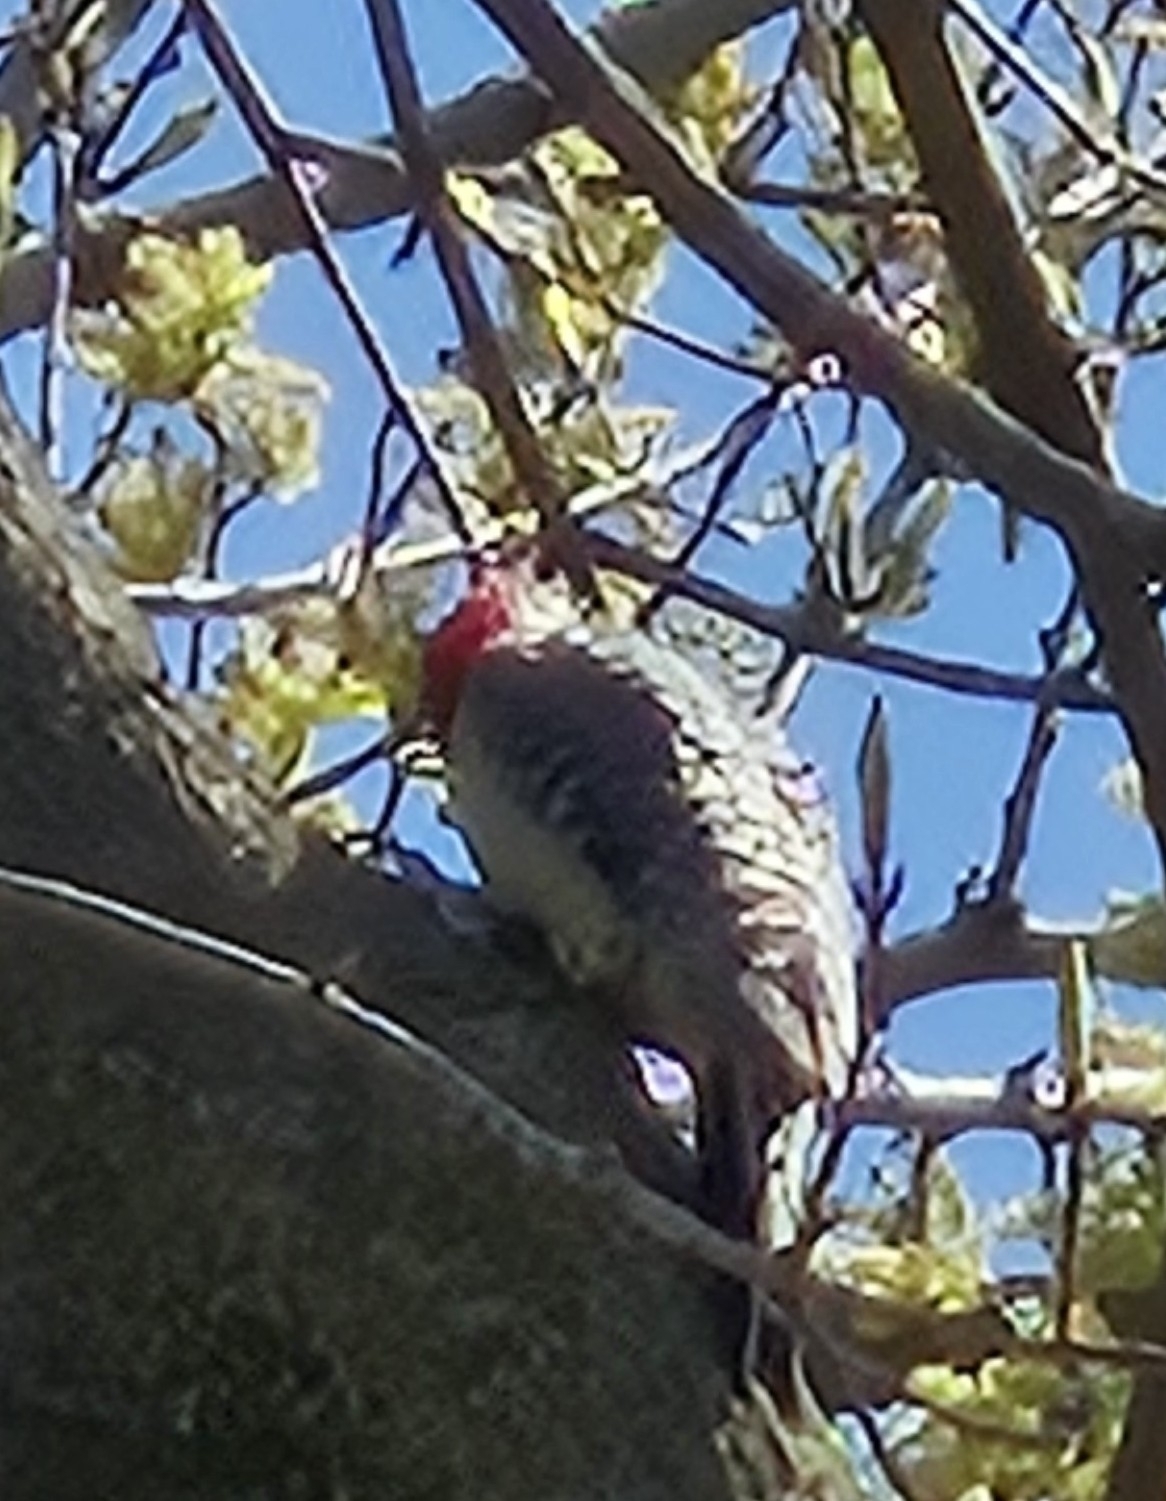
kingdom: Animalia
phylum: Chordata
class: Aves
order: Piciformes
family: Picidae
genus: Melanerpes
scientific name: Melanerpes carolinus
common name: Red-bellied woodpecker
